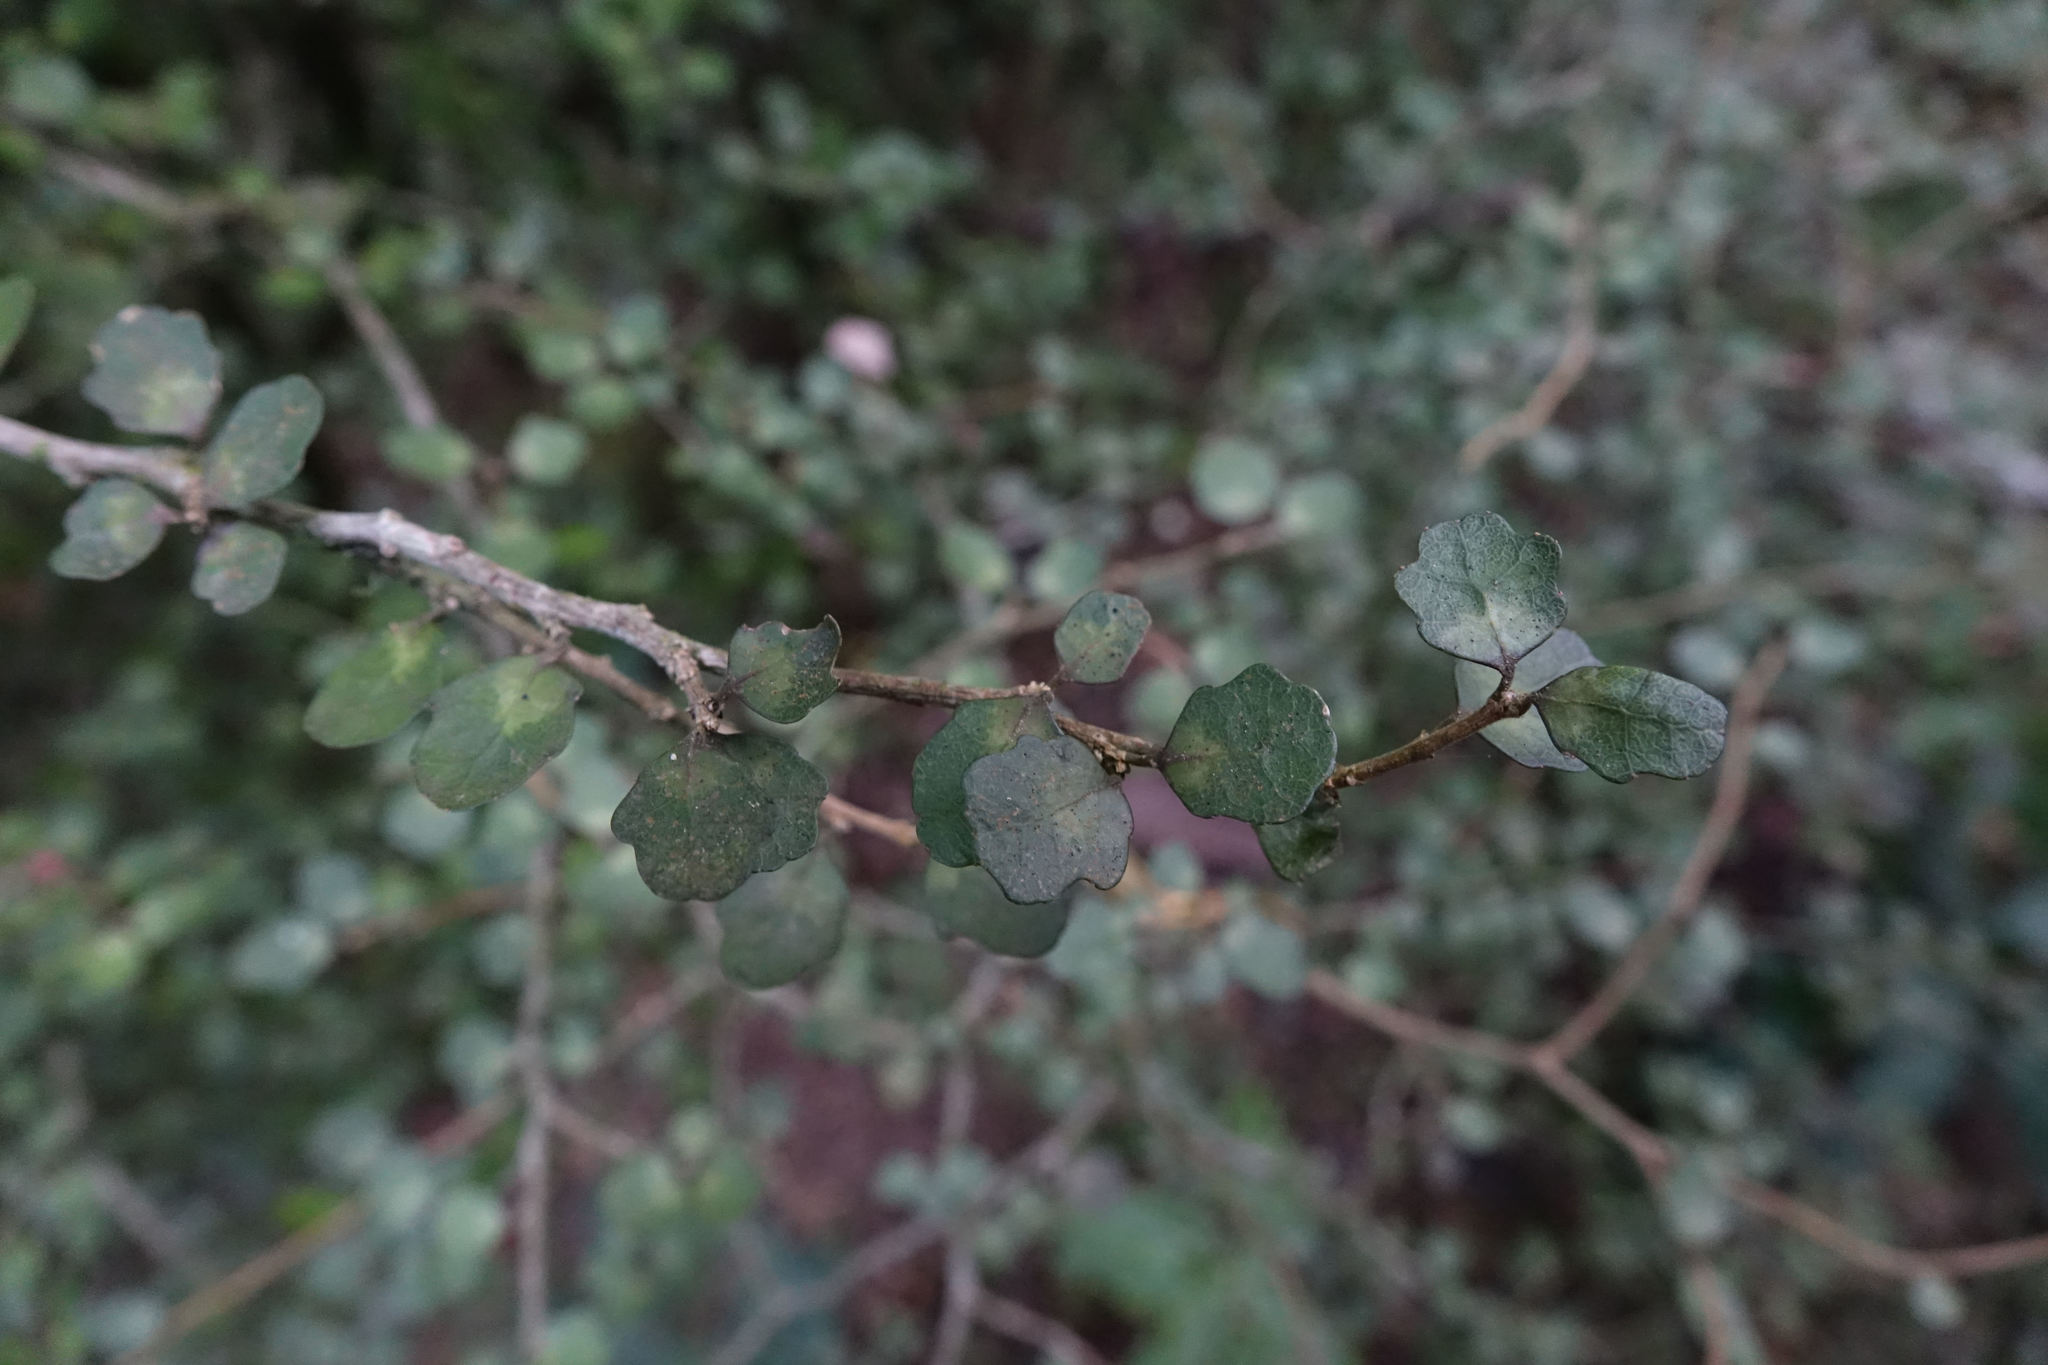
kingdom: Plantae
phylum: Tracheophyta
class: Magnoliopsida
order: Malpighiales
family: Violaceae
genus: Melicytus
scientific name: Melicytus micranthus
